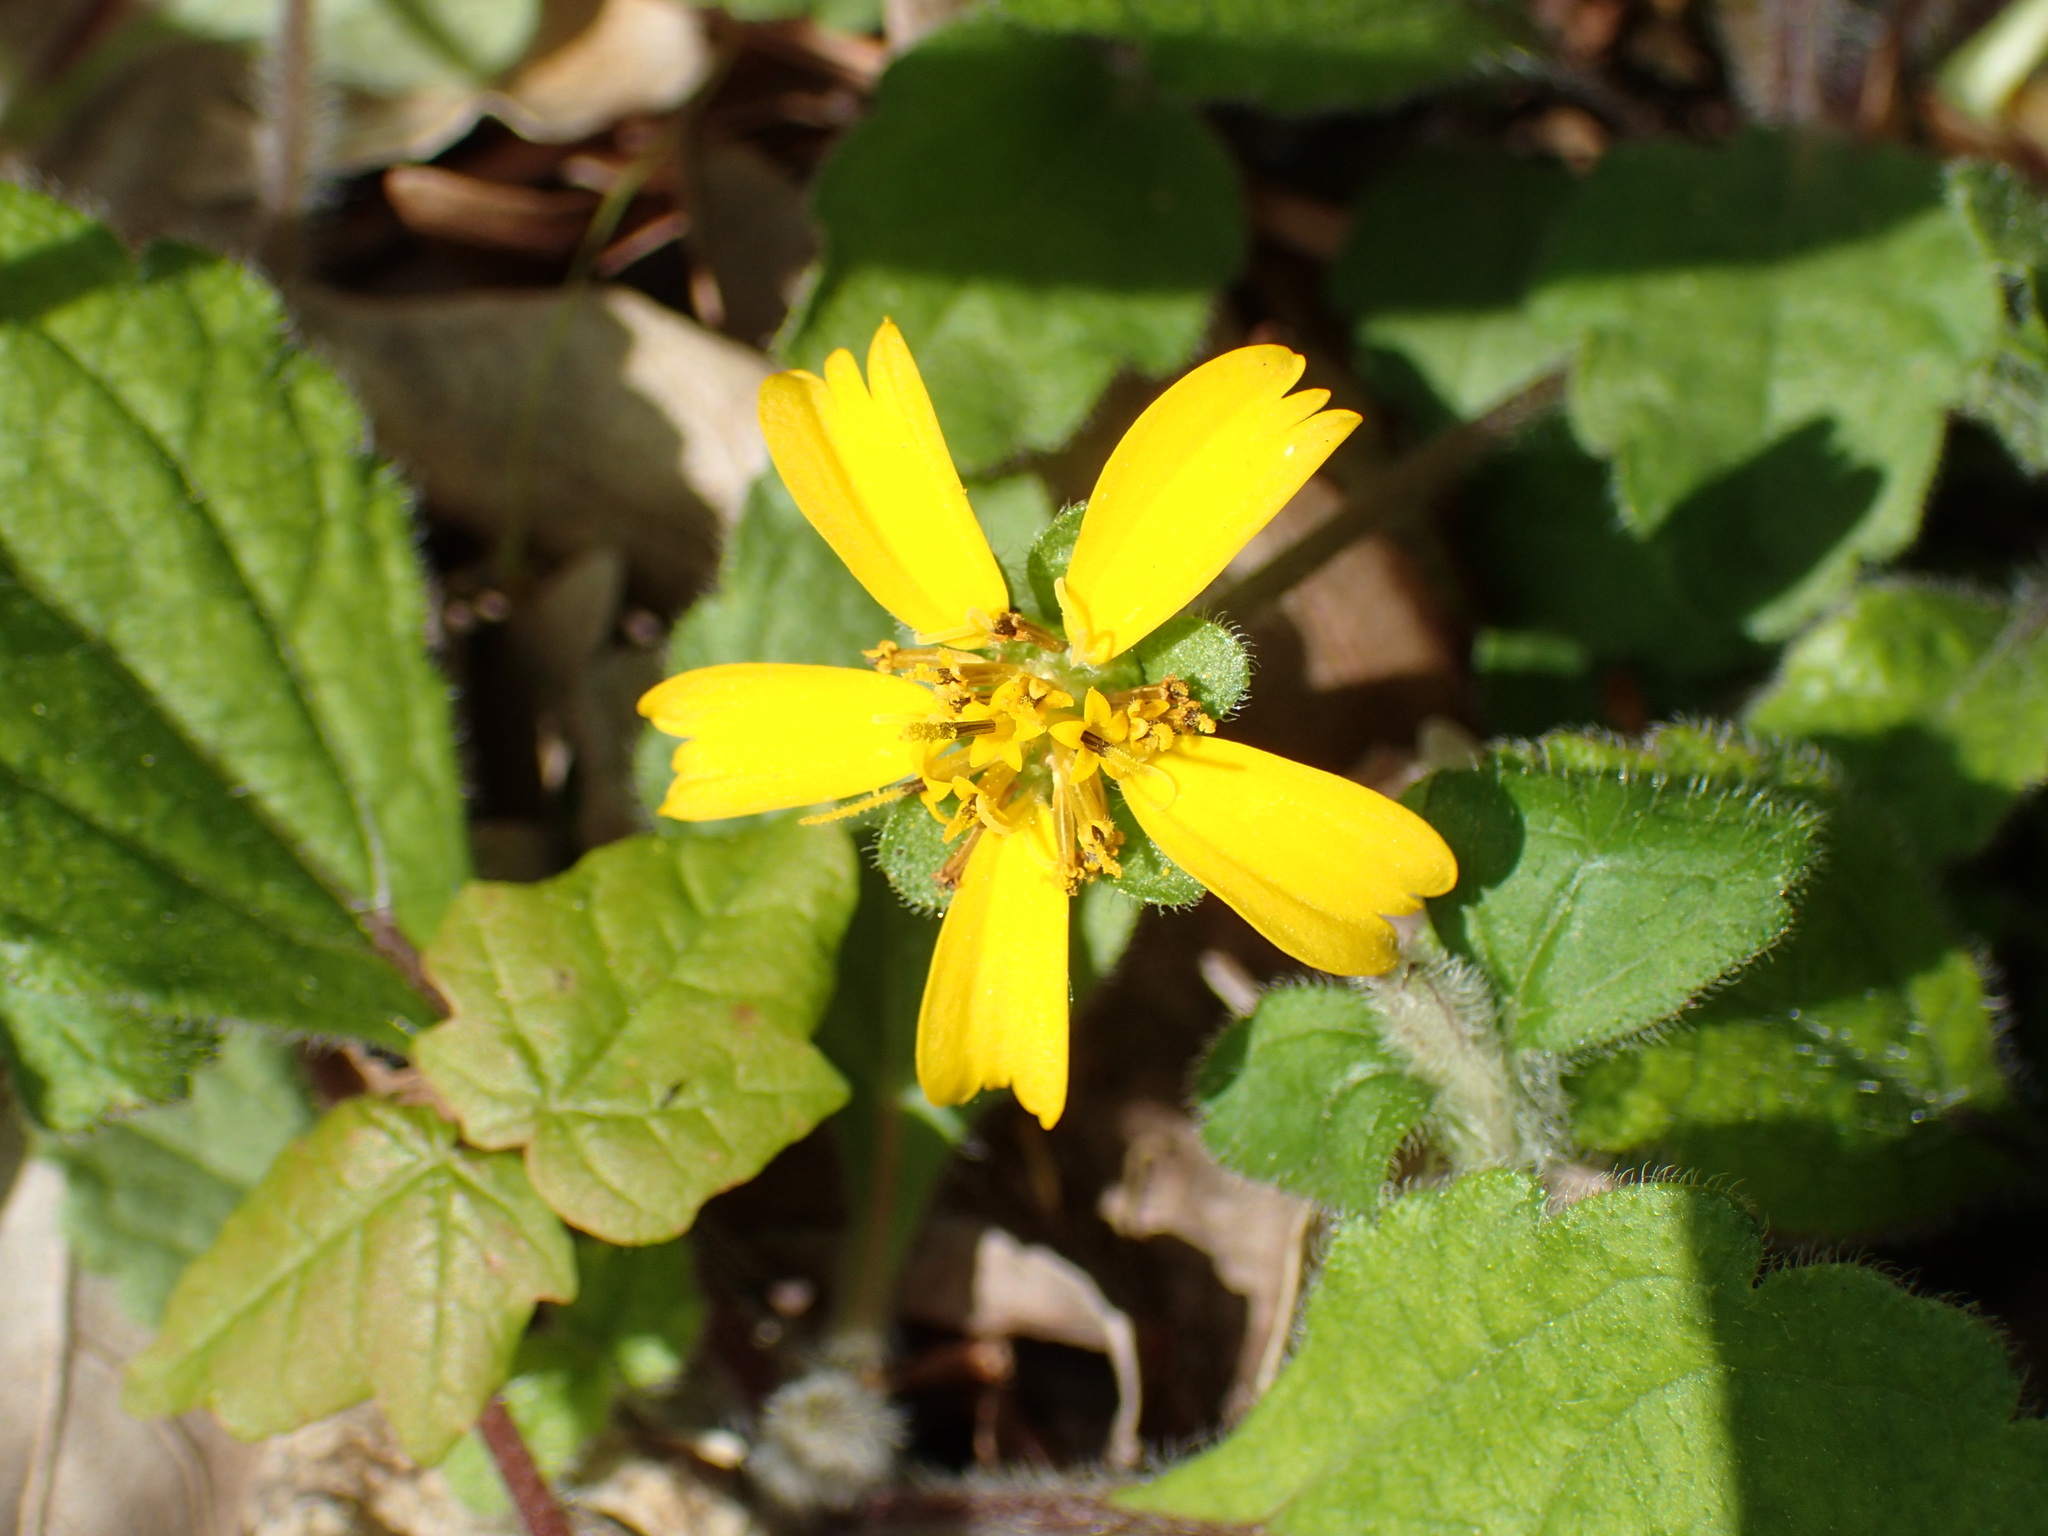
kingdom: Plantae
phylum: Tracheophyta
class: Magnoliopsida
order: Asterales
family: Asteraceae
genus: Chrysogonum
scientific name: Chrysogonum australe
